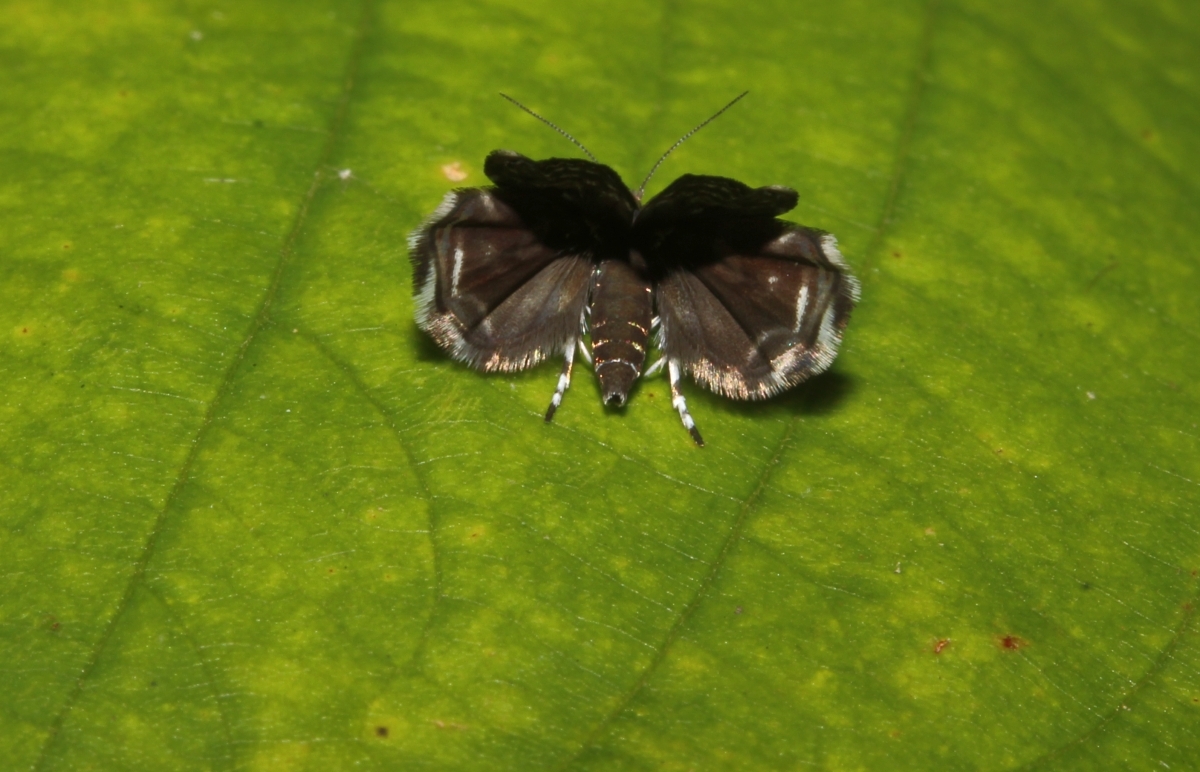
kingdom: Animalia
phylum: Arthropoda
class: Insecta
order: Lepidoptera
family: Choreutidae
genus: Brenthia
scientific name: Brenthia
